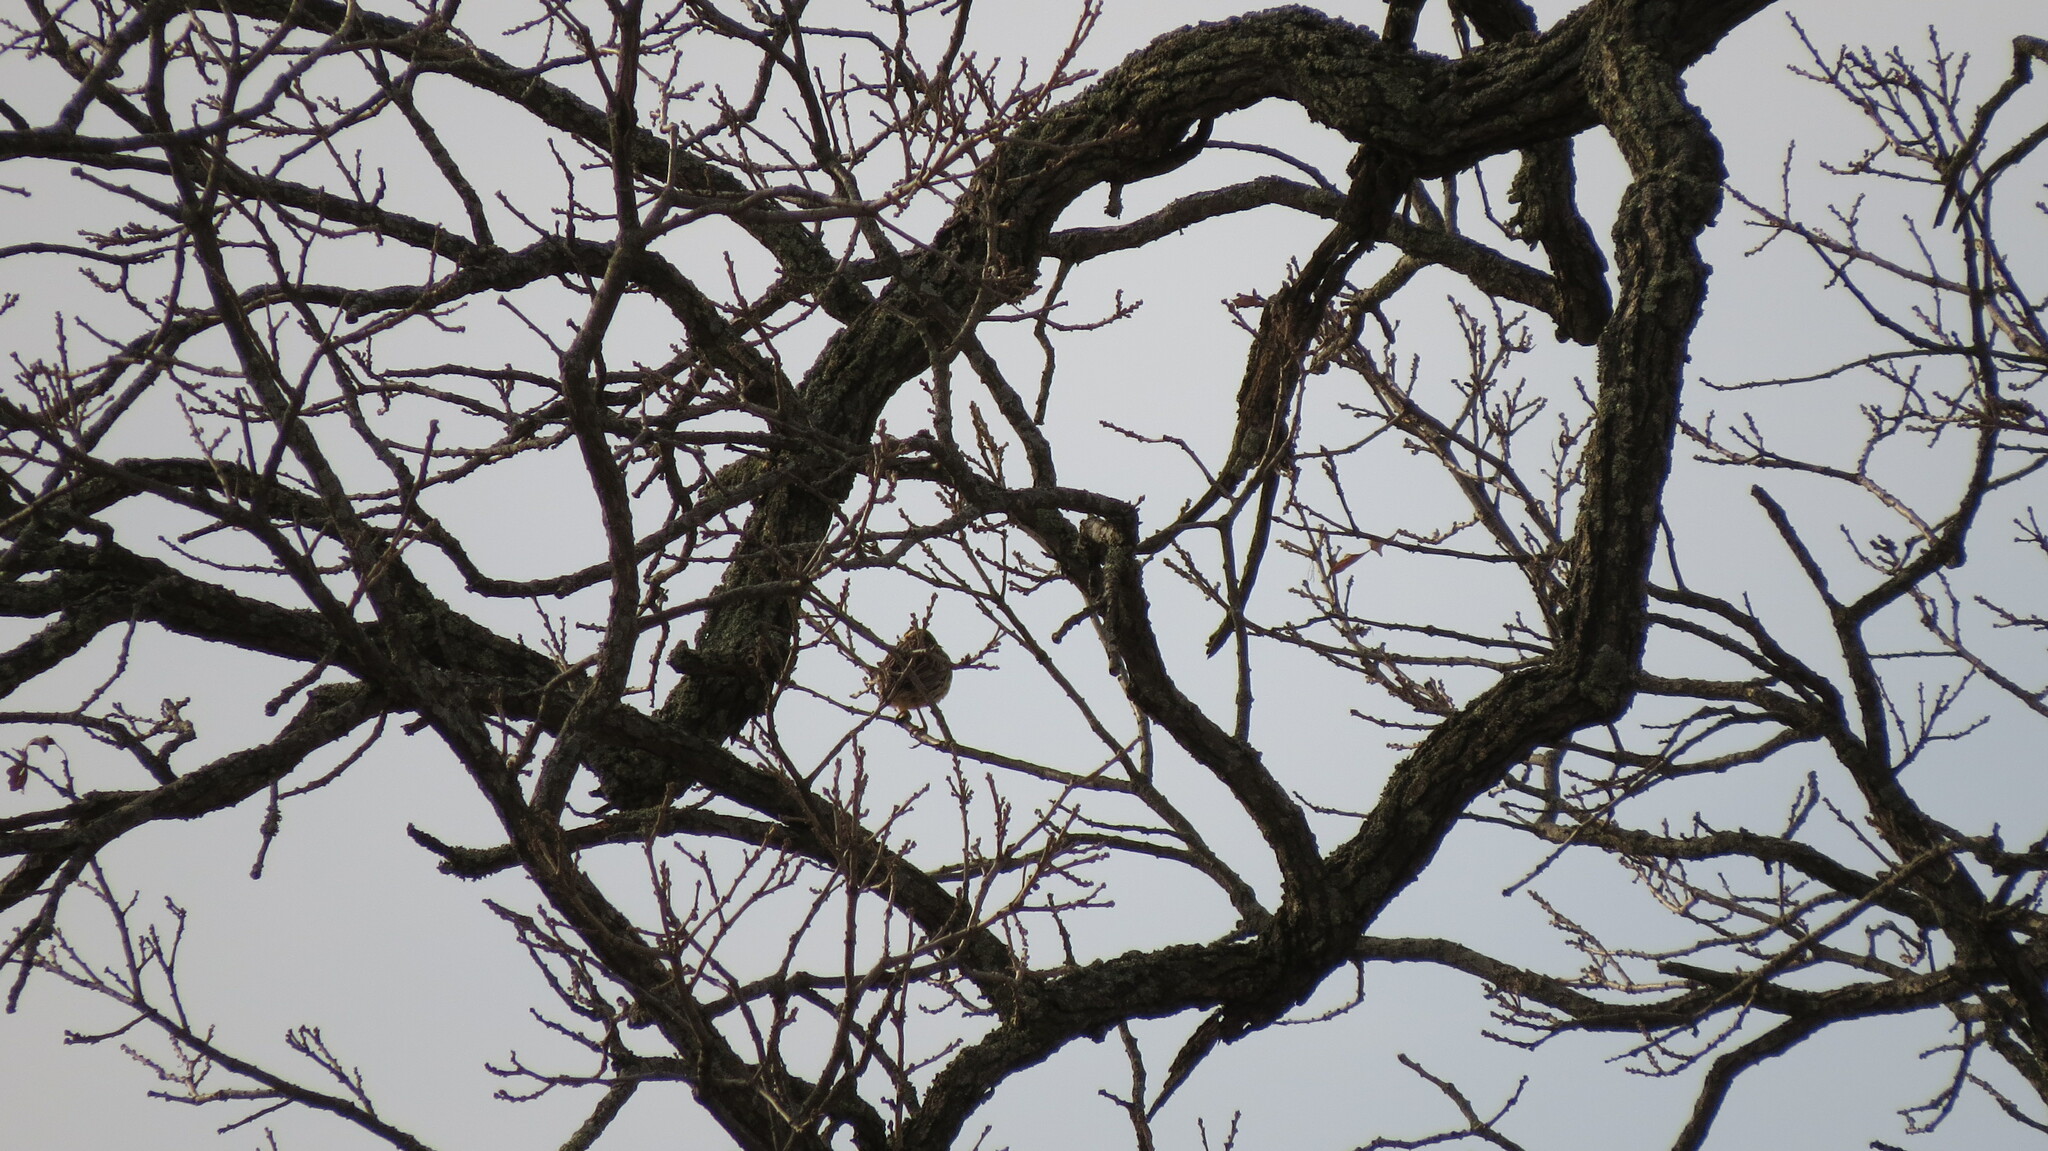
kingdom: Animalia
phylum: Chordata
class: Aves
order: Passeriformes
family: Icteridae
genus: Sturnella
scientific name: Sturnella magna
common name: Eastern meadowlark
